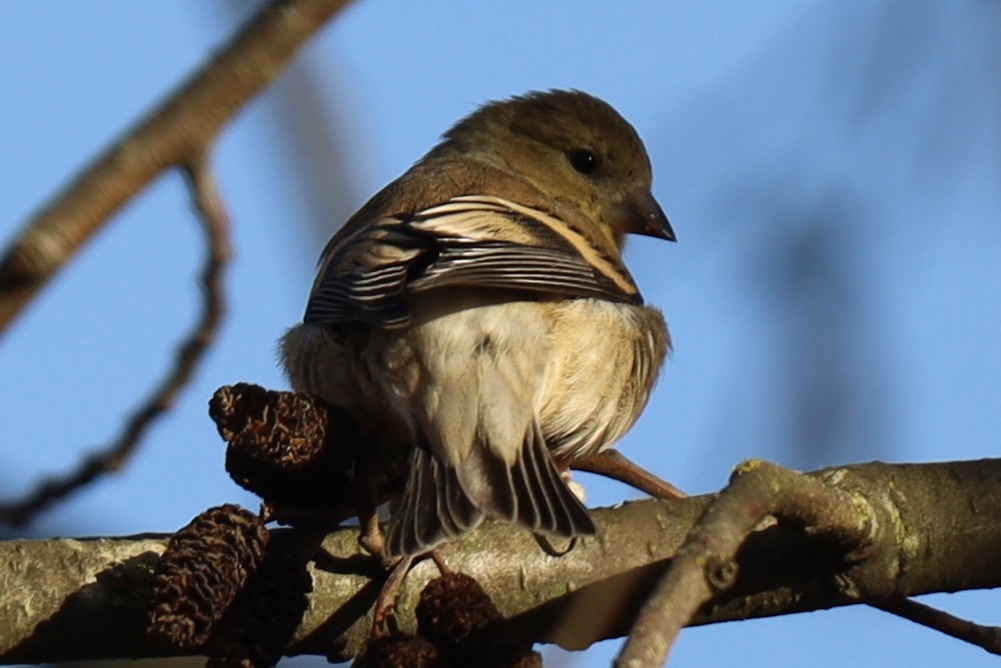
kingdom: Animalia
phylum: Chordata
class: Aves
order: Passeriformes
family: Fringillidae
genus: Spinus
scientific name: Spinus tristis
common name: American goldfinch
